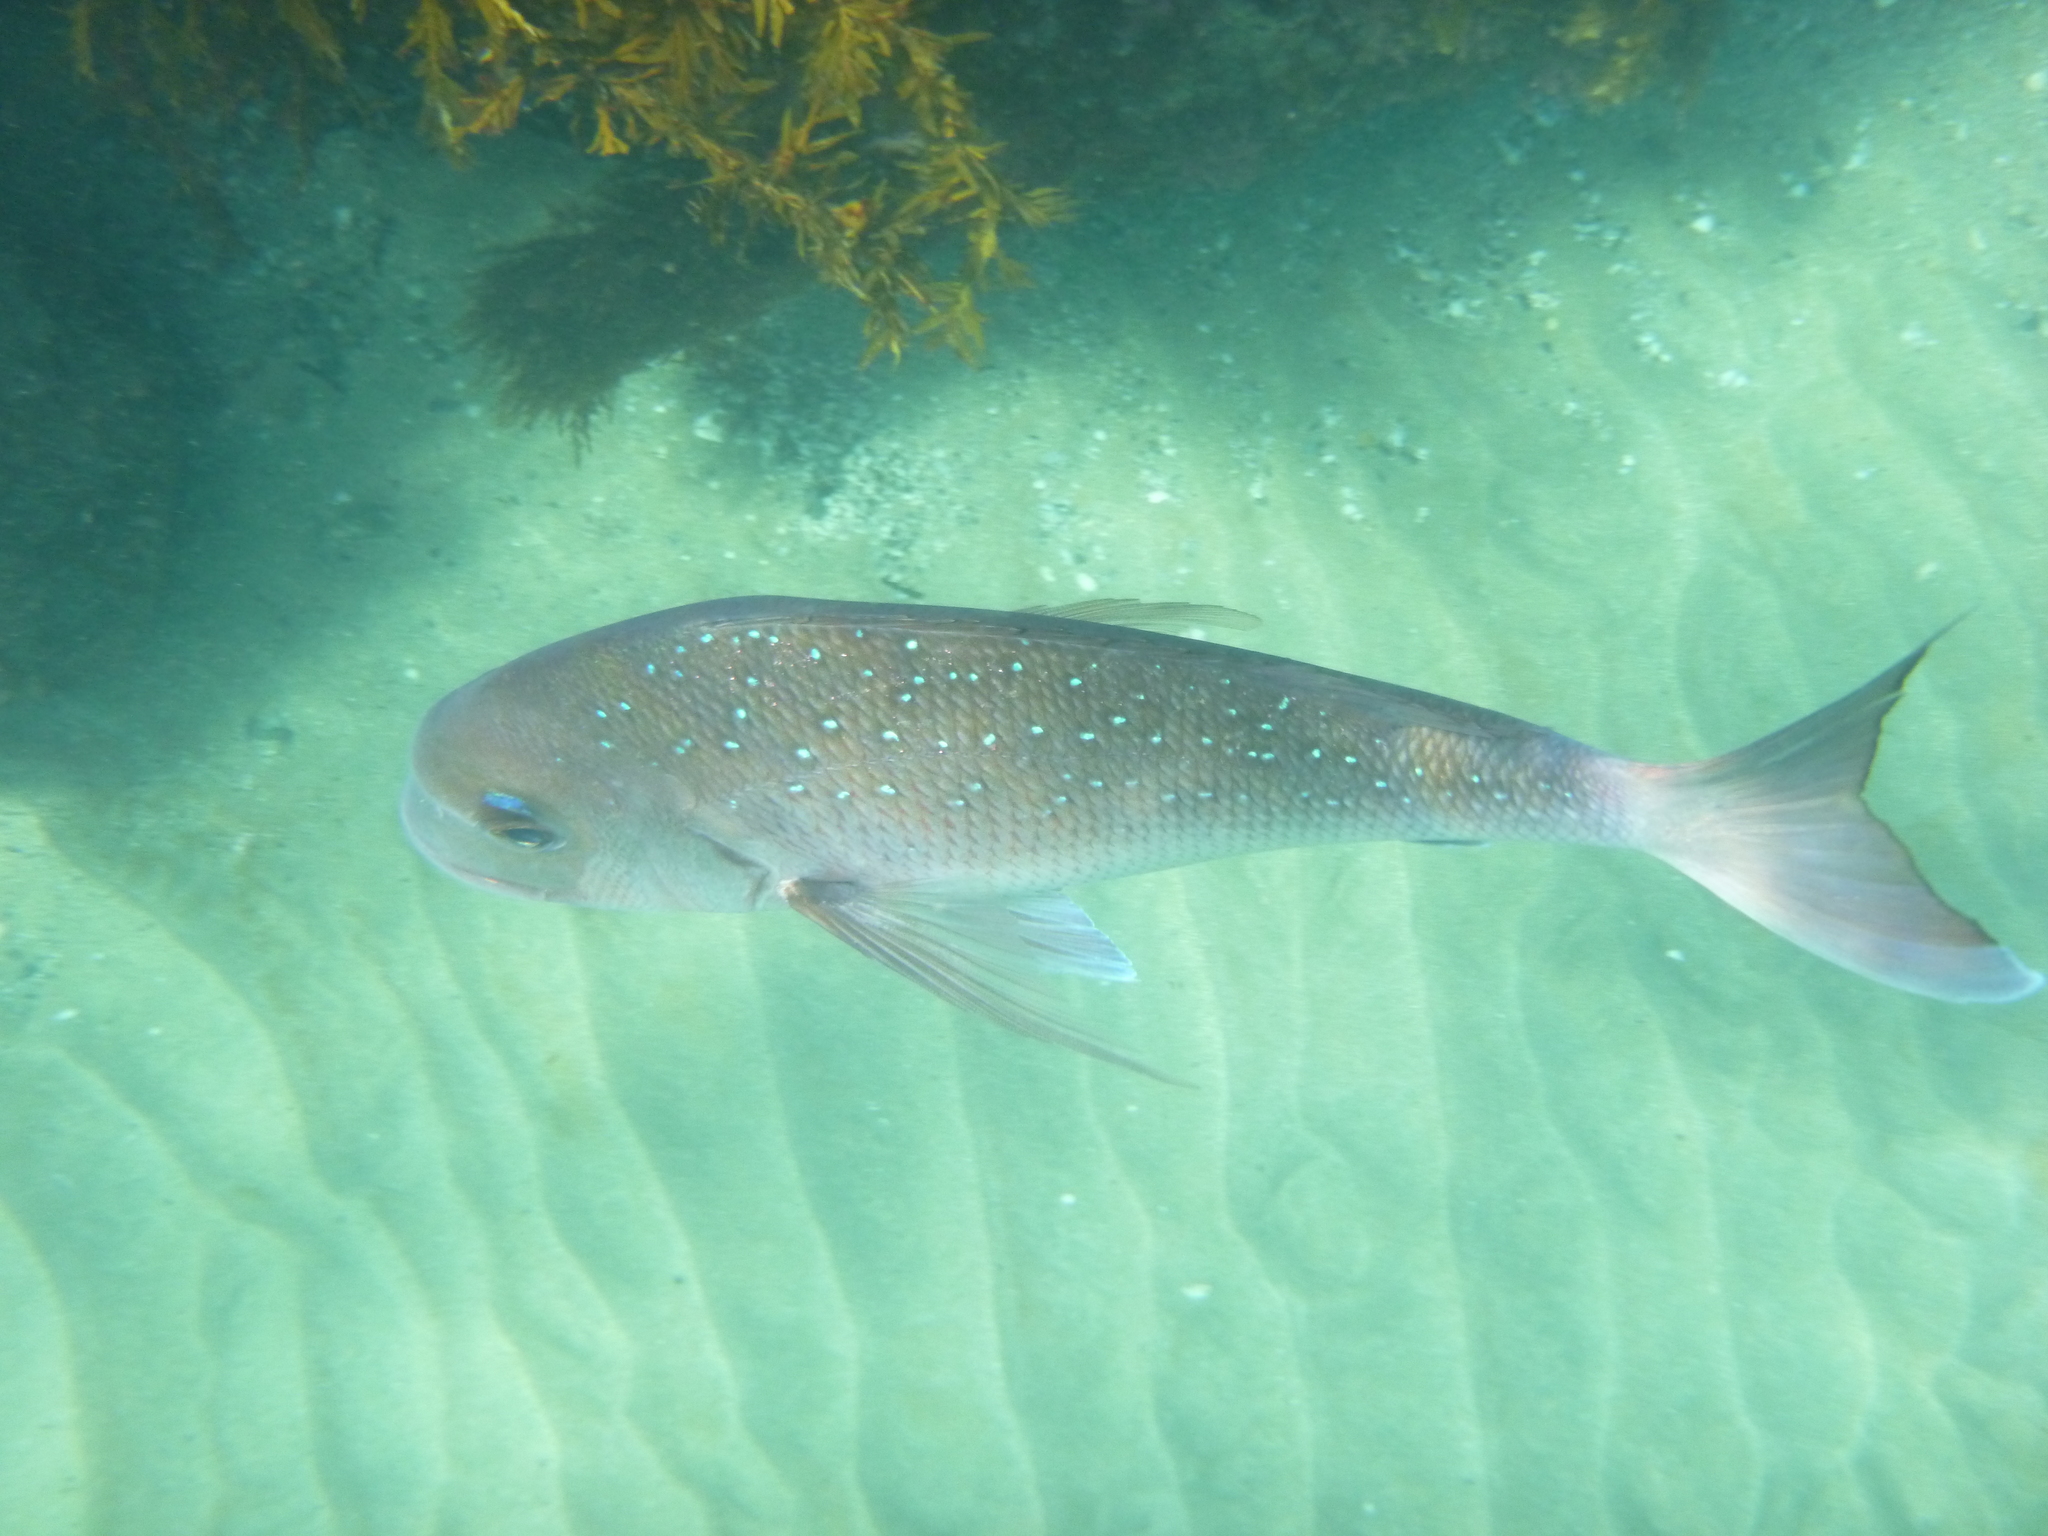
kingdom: Animalia
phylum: Chordata
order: Perciformes
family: Sparidae
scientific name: Sparidae
